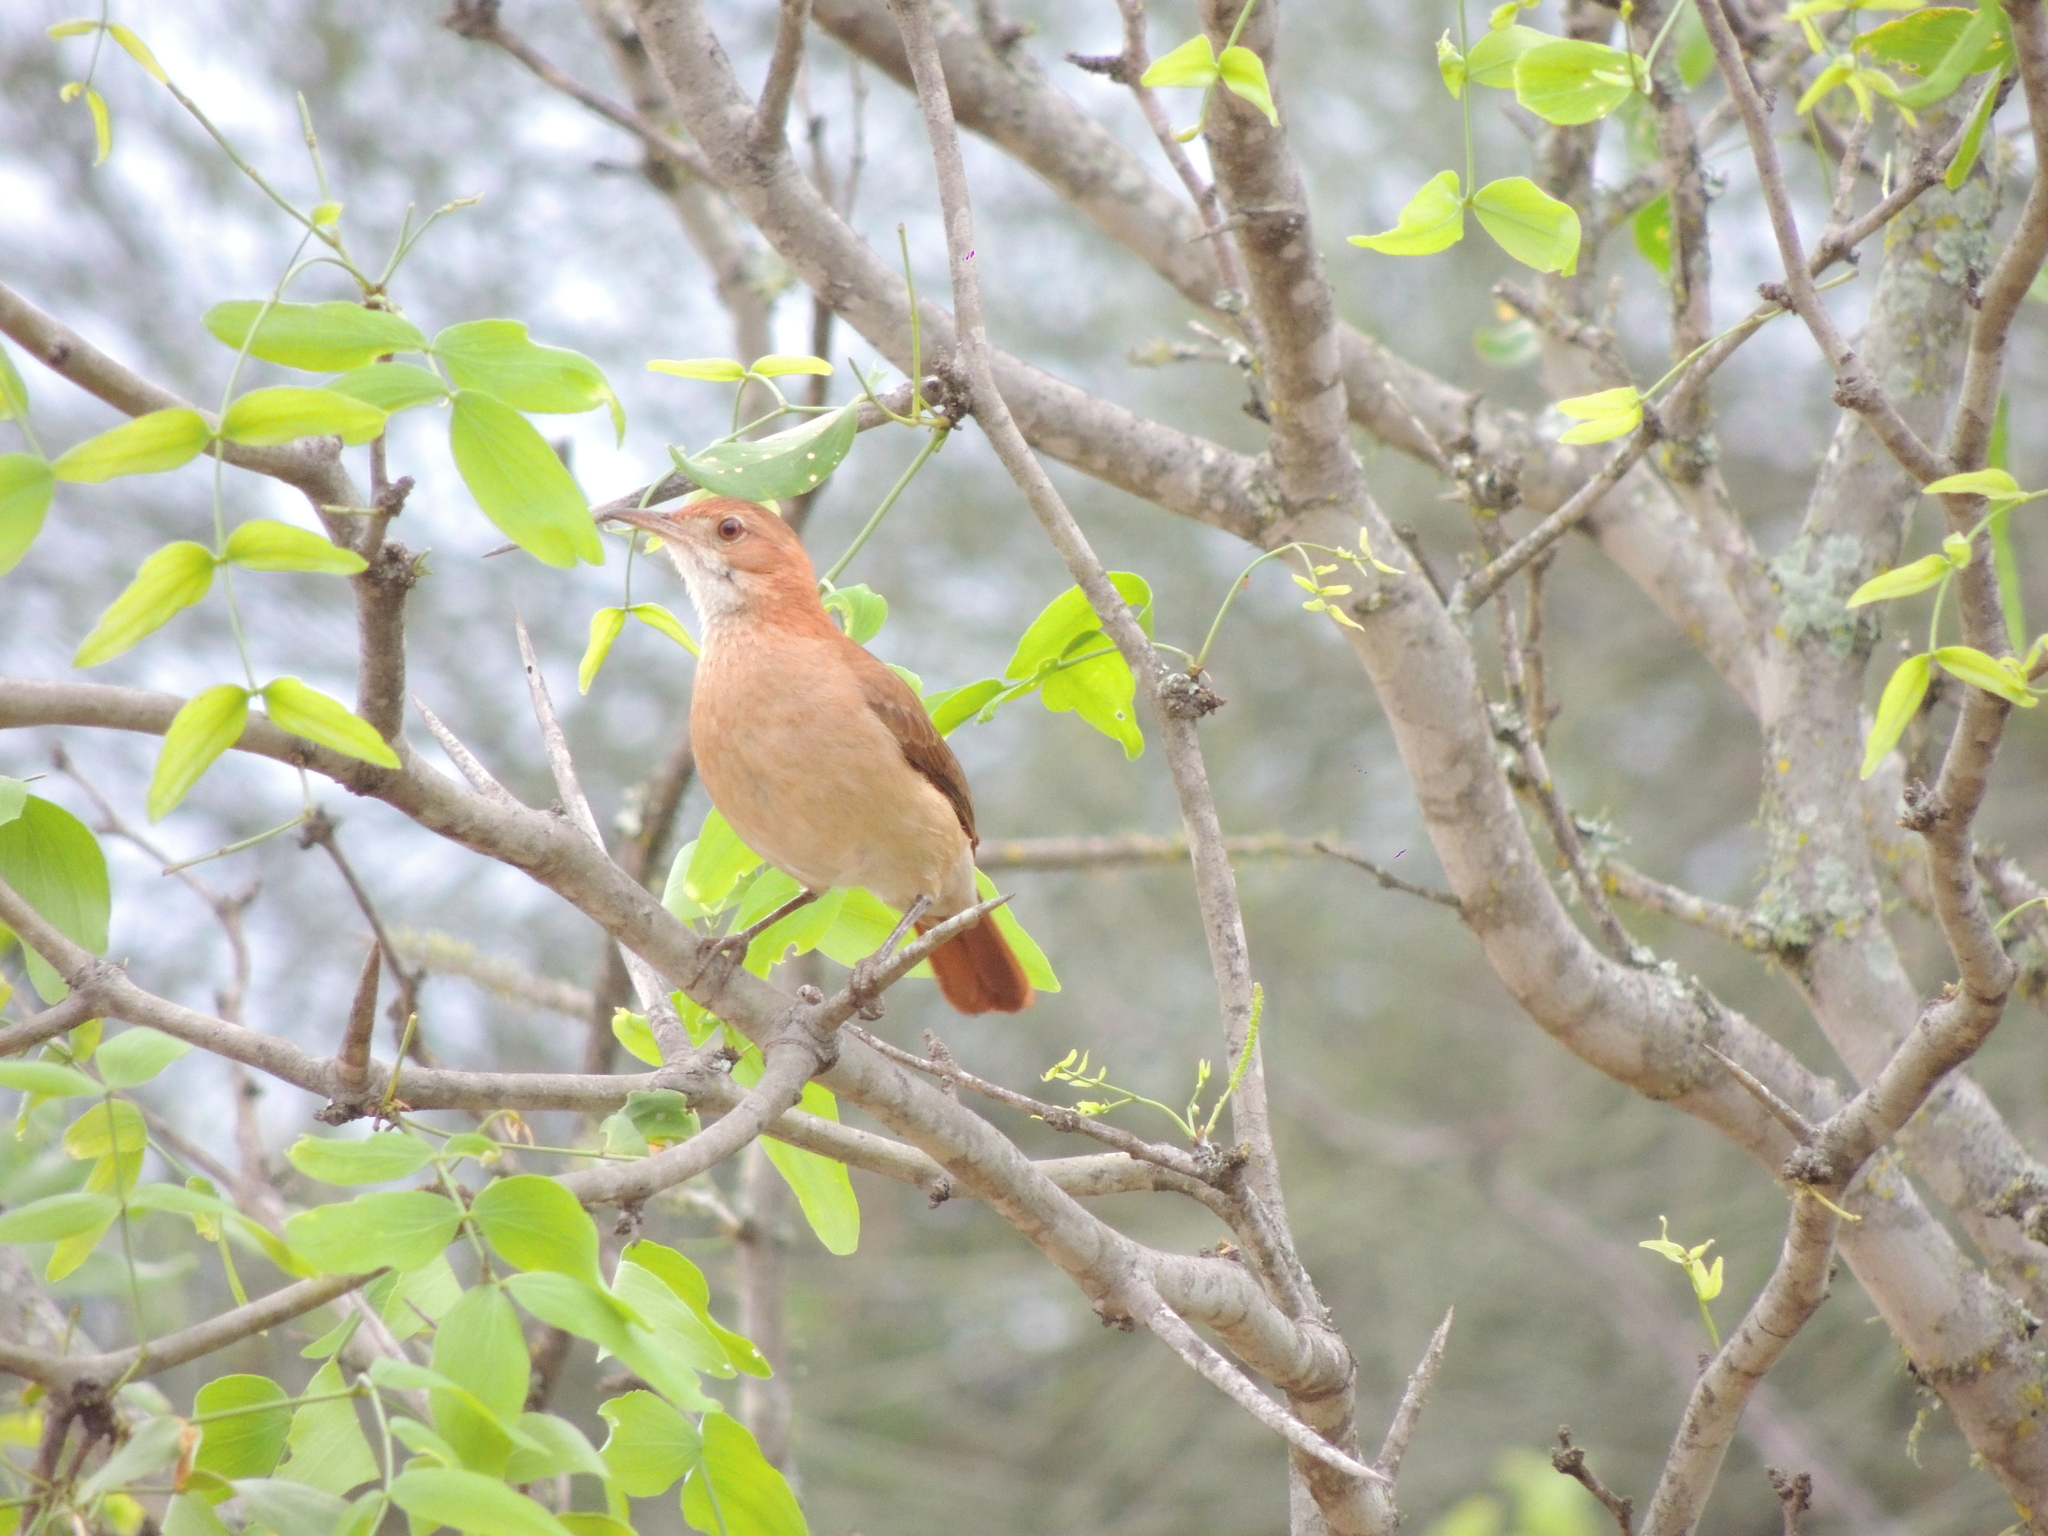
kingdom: Animalia
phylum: Chordata
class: Aves
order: Passeriformes
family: Furnariidae
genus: Furnarius
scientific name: Furnarius rufus
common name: Rufous hornero
